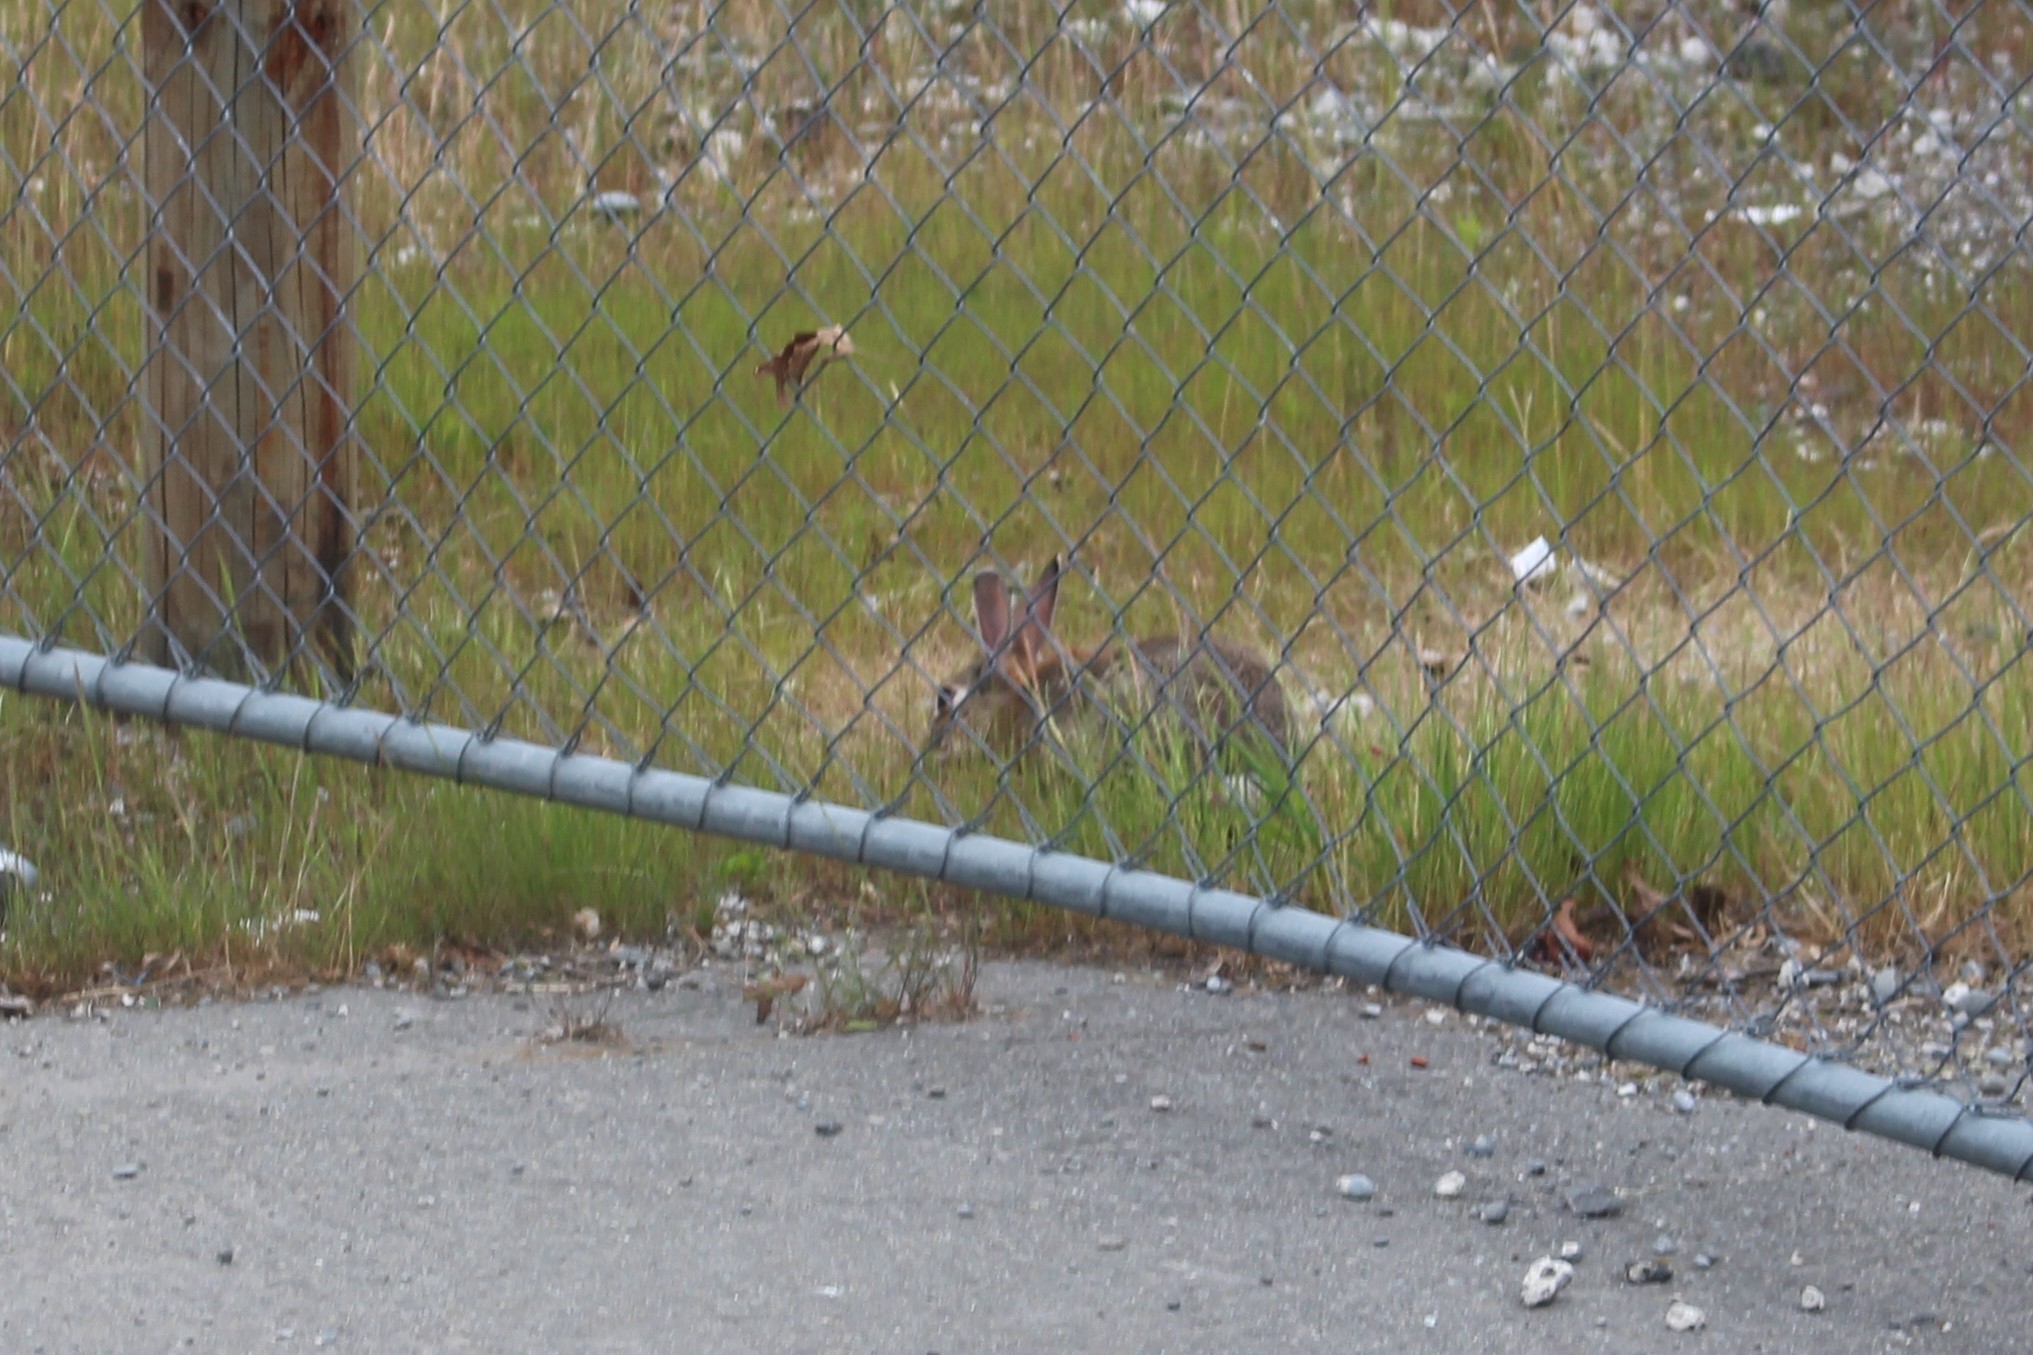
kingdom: Animalia
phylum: Chordata
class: Mammalia
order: Lagomorpha
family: Leporidae
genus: Oryctolagus
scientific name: Oryctolagus cuniculus
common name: European rabbit
